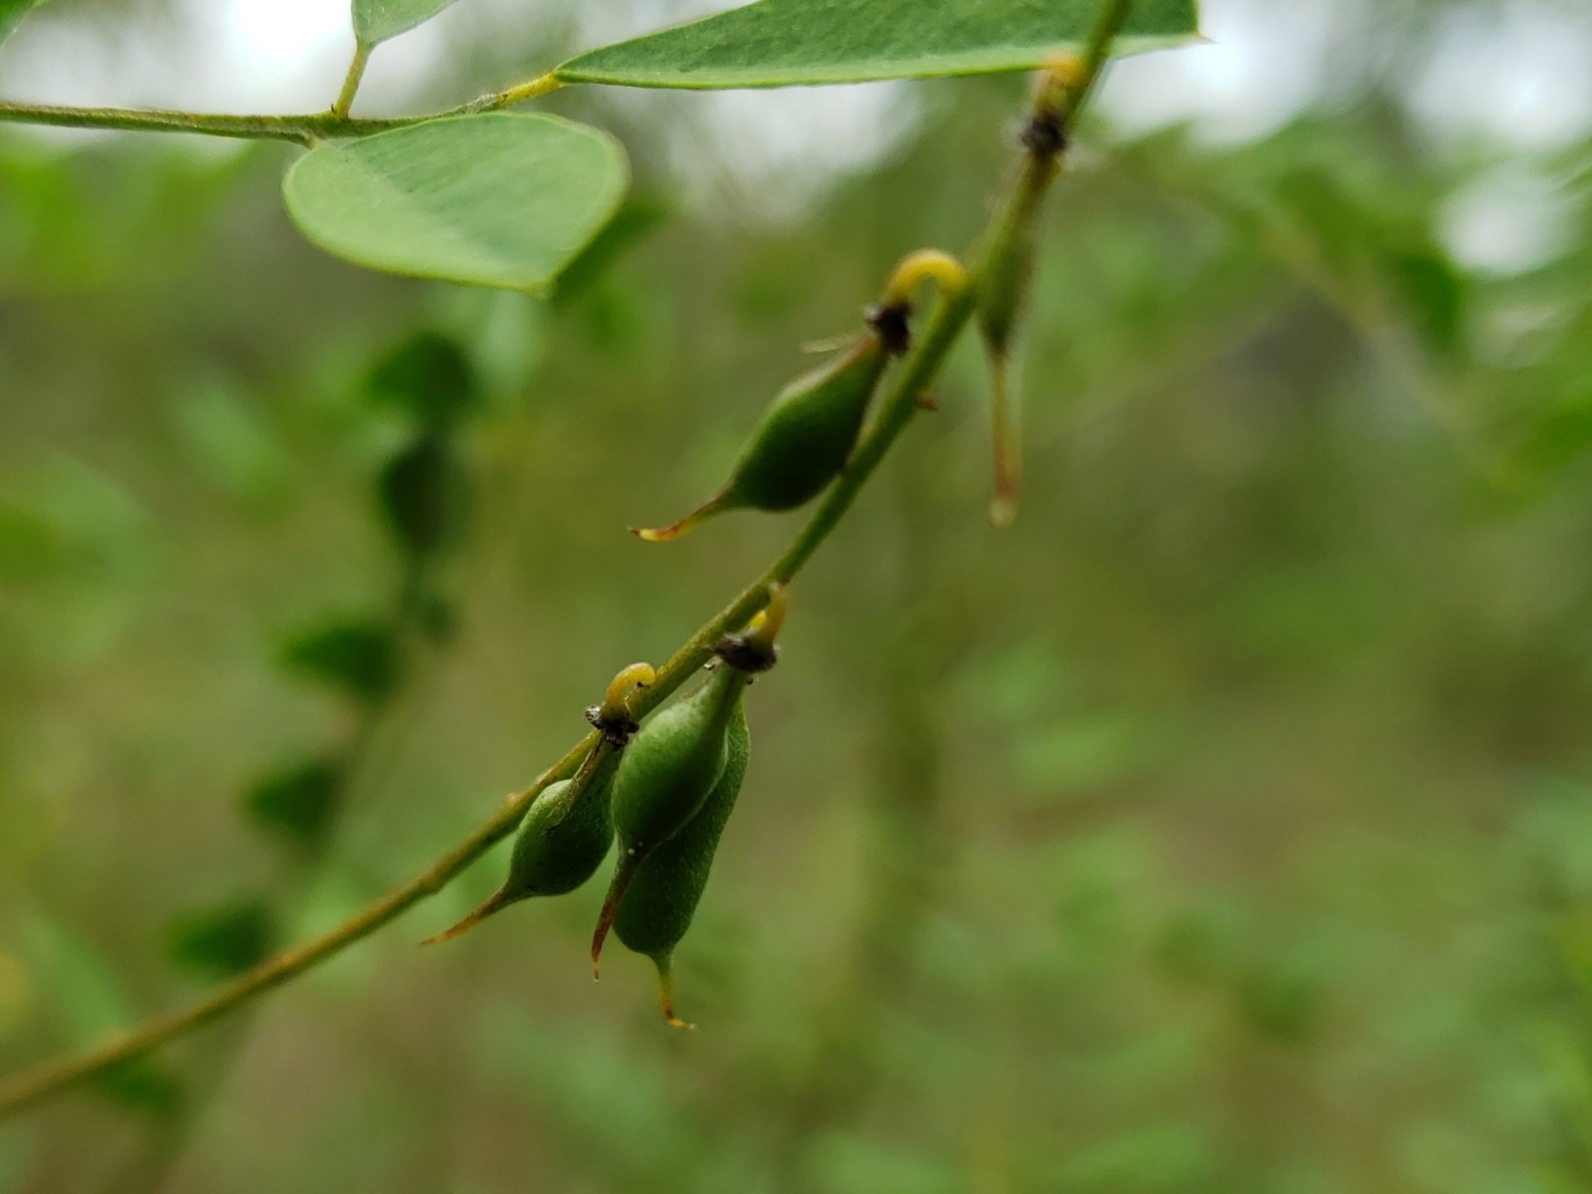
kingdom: Plantae
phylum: Tracheophyta
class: Magnoliopsida
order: Fabales
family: Fabaceae
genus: Indigofera
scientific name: Indigofera caroliniana
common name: Wild indigo
